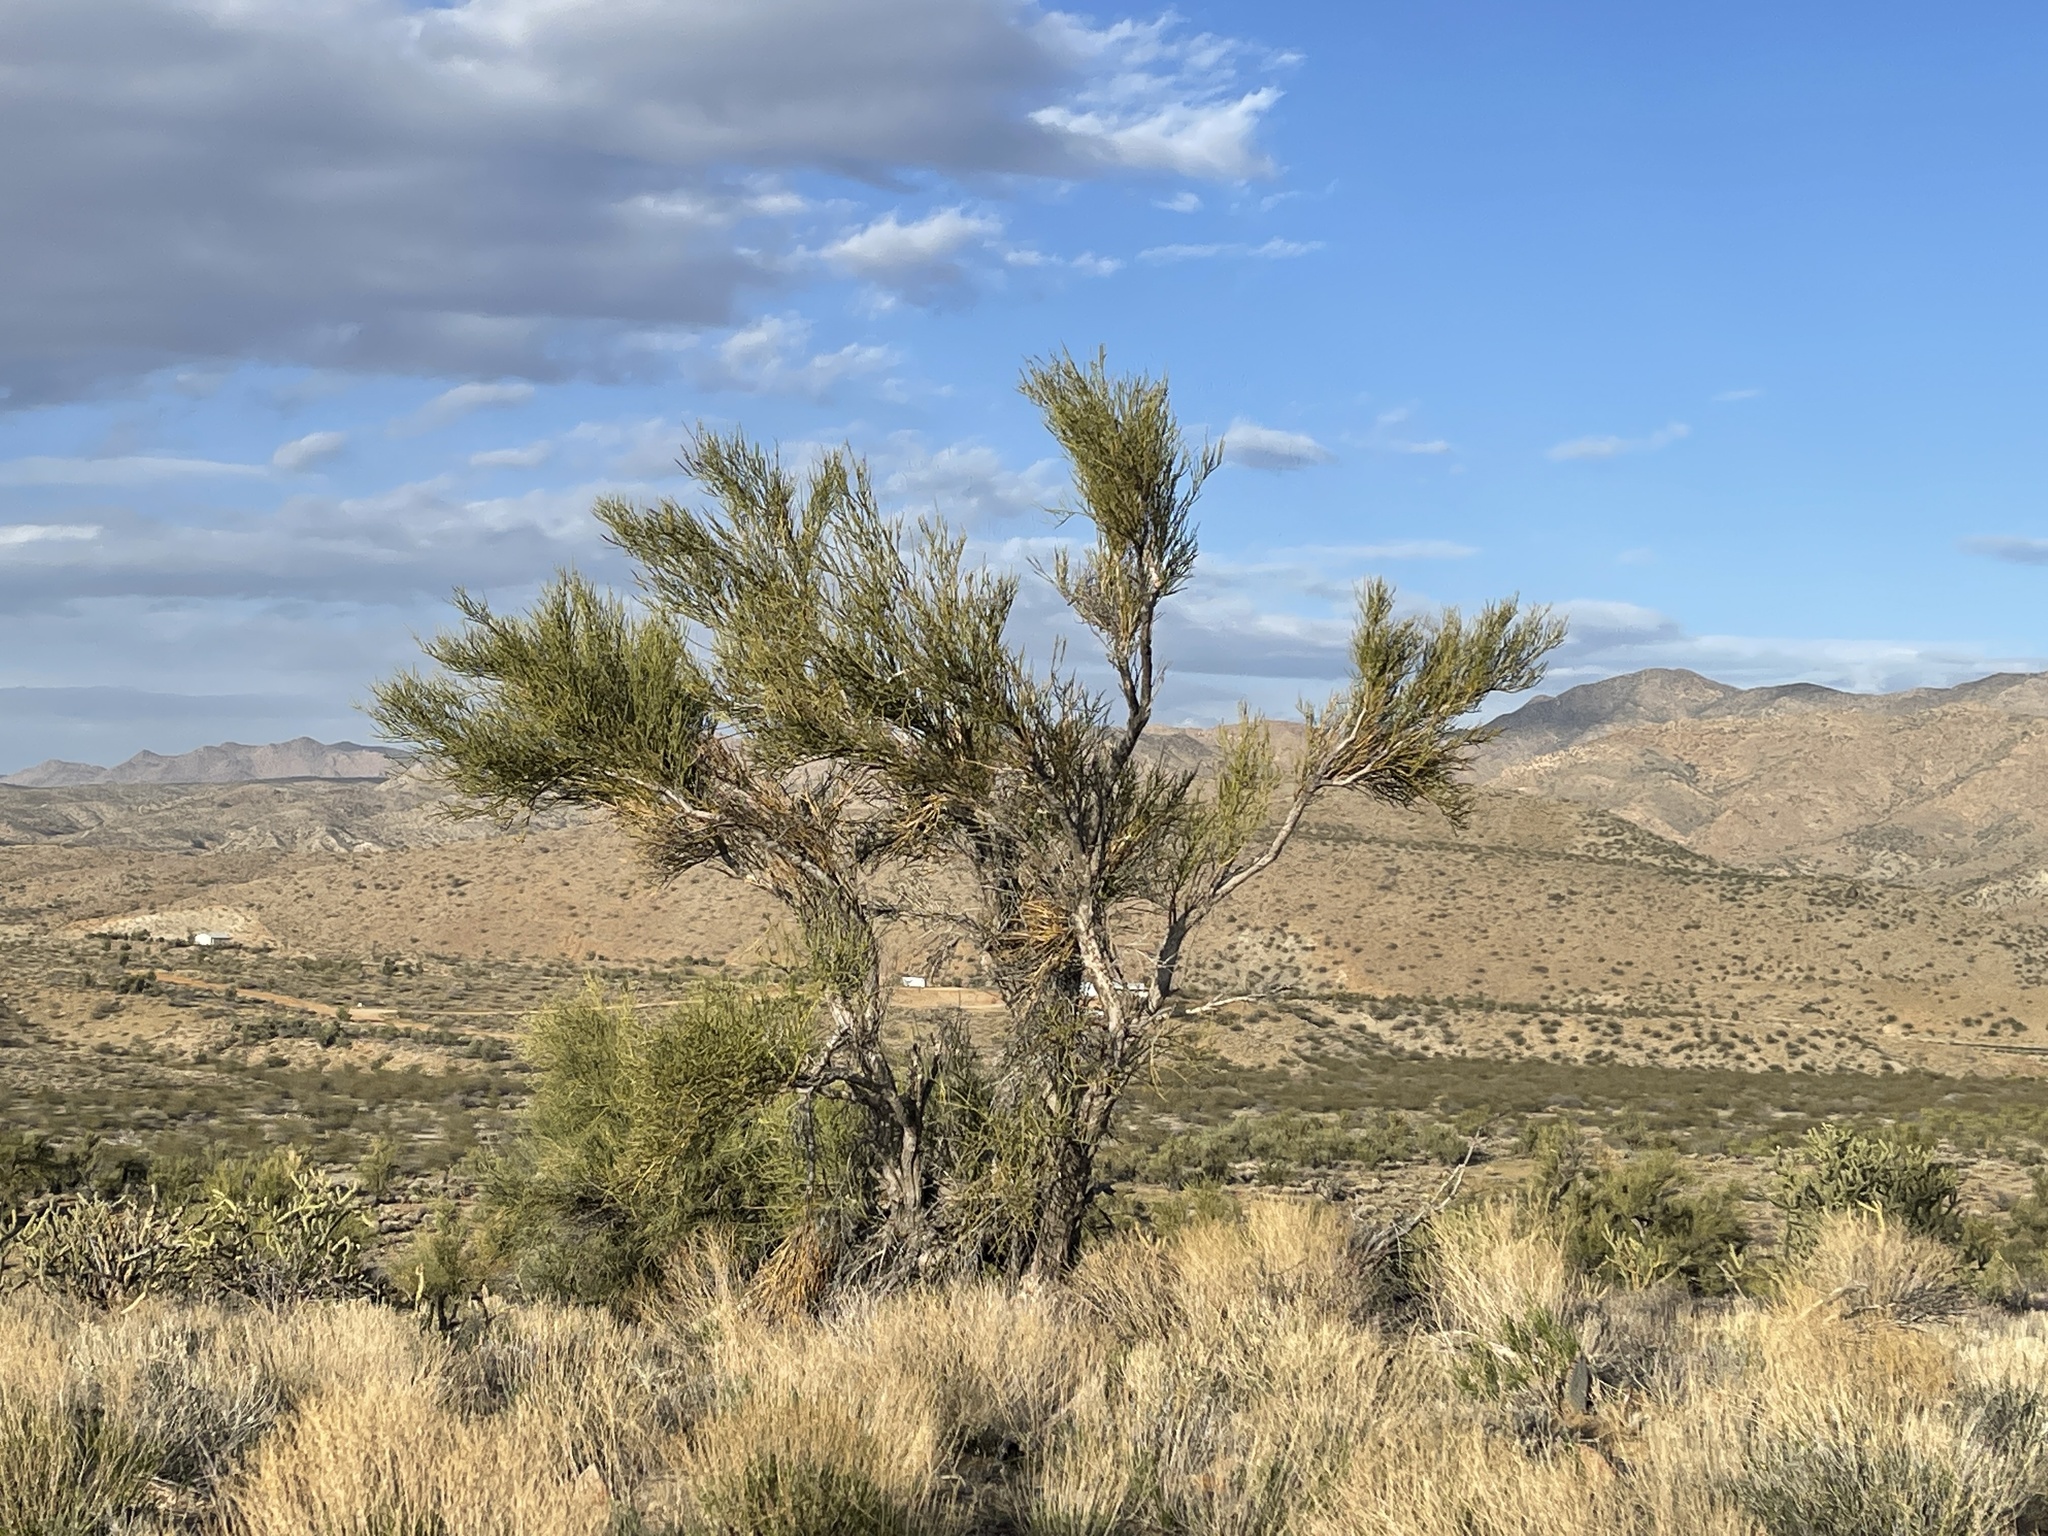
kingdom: Plantae
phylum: Tracheophyta
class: Magnoliopsida
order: Celastrales
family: Celastraceae
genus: Canotia
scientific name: Canotia holacantha
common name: Crucifixion thorns
